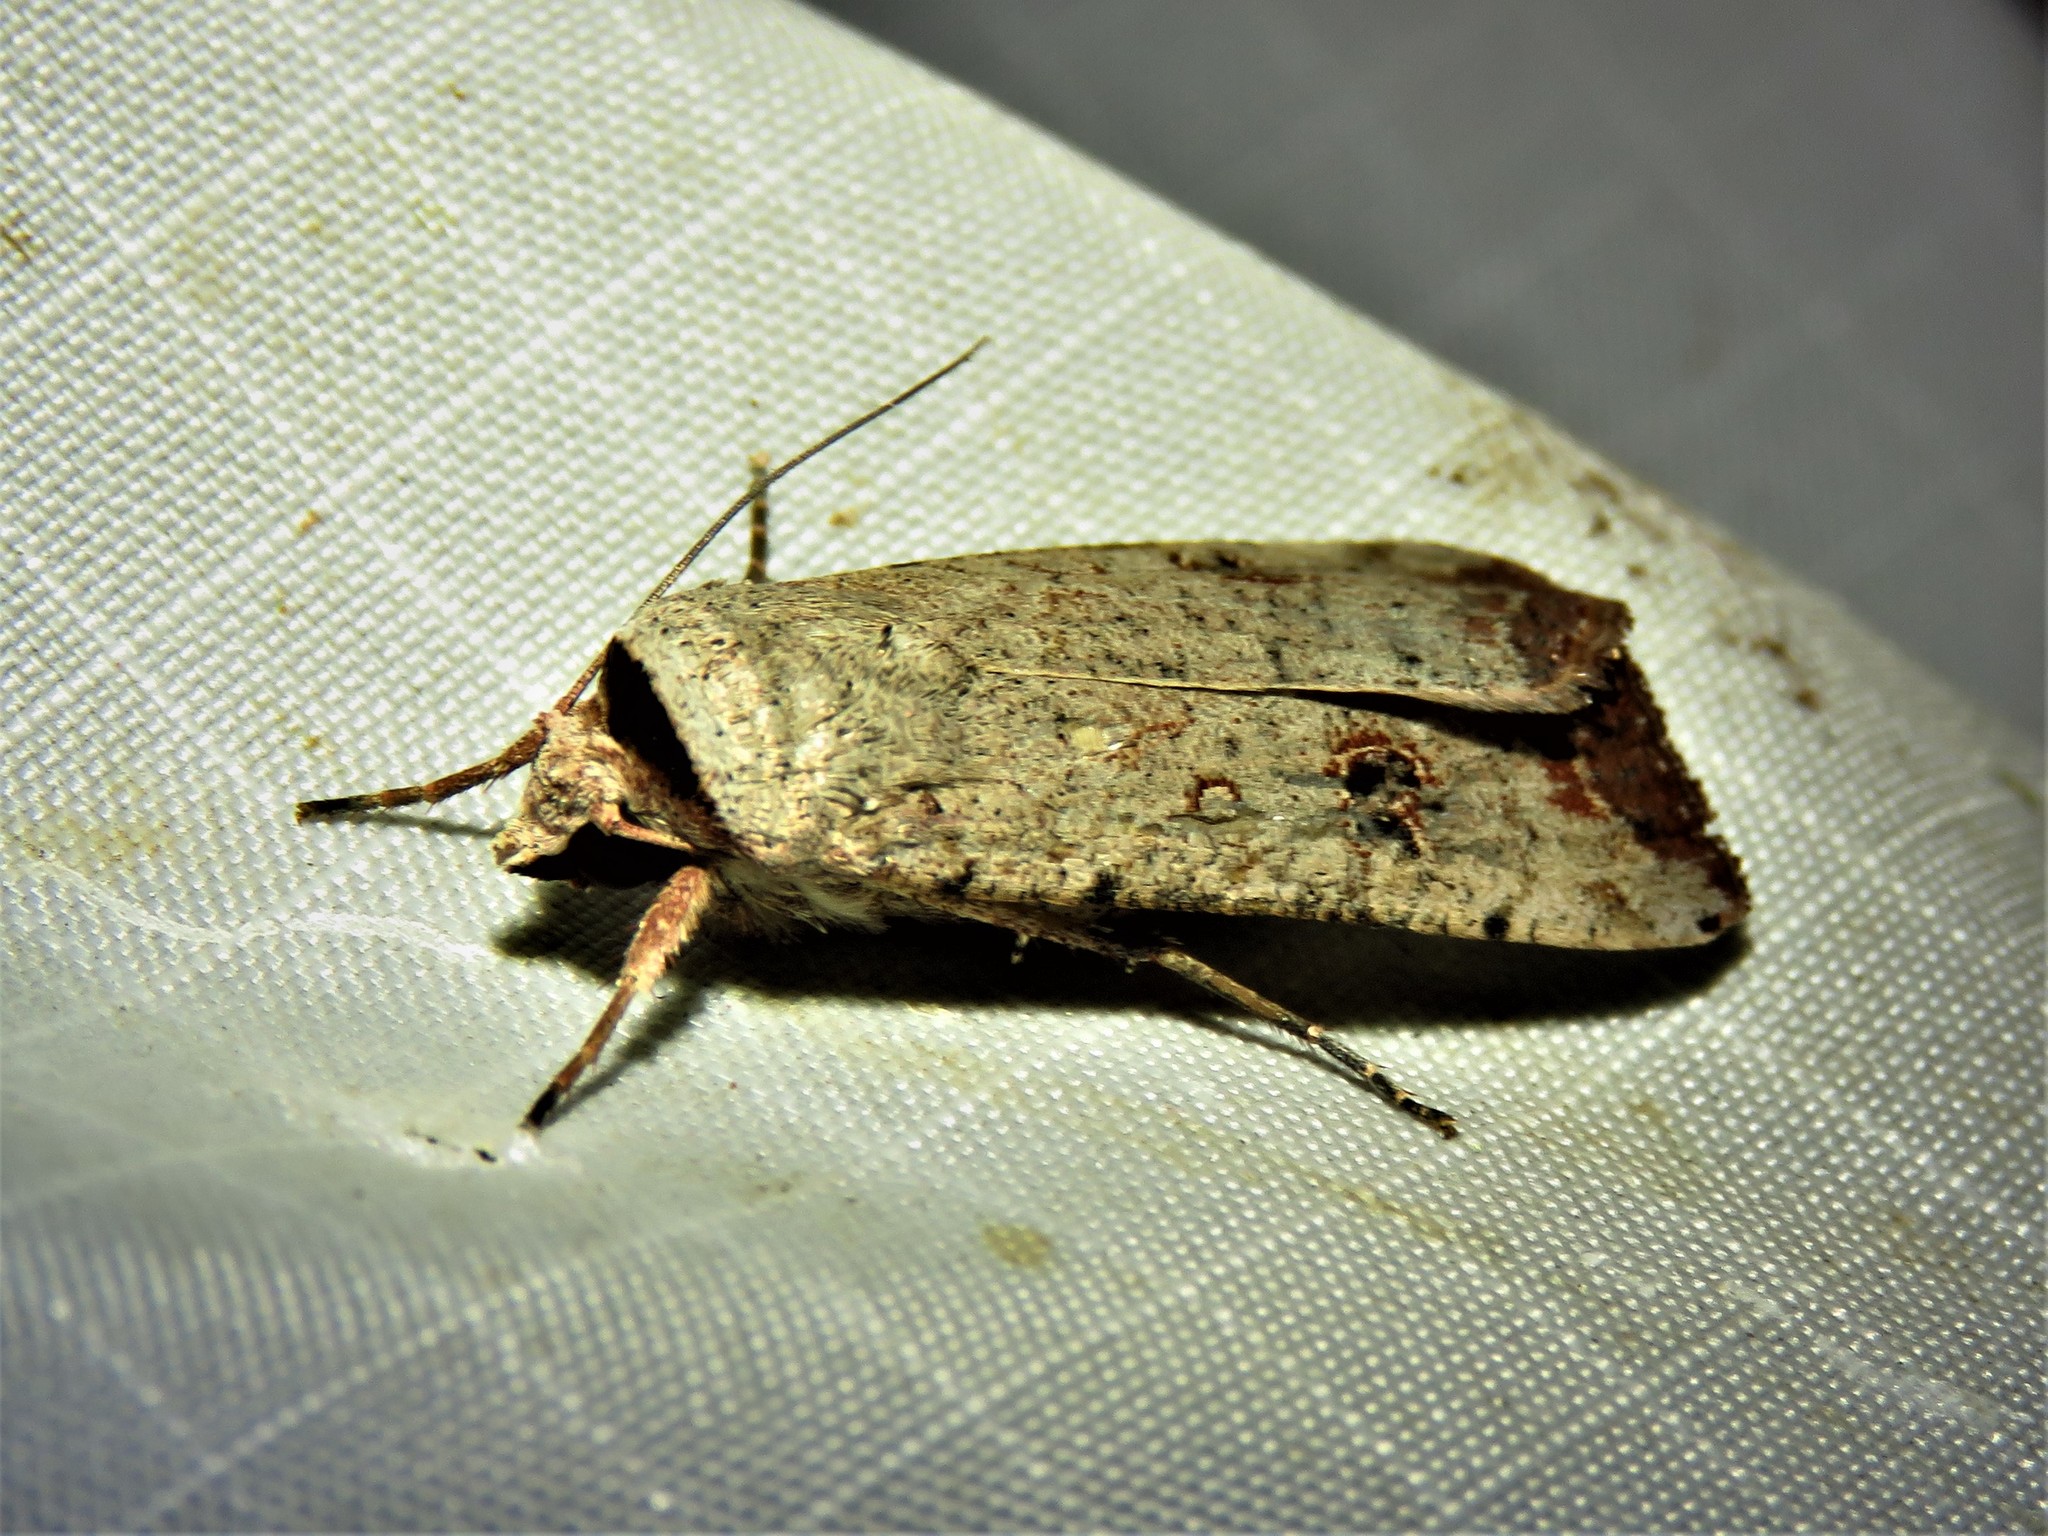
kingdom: Animalia
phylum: Arthropoda
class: Insecta
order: Lepidoptera
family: Noctuidae
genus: Anicla
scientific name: Anicla infecta
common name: Green cutworm
